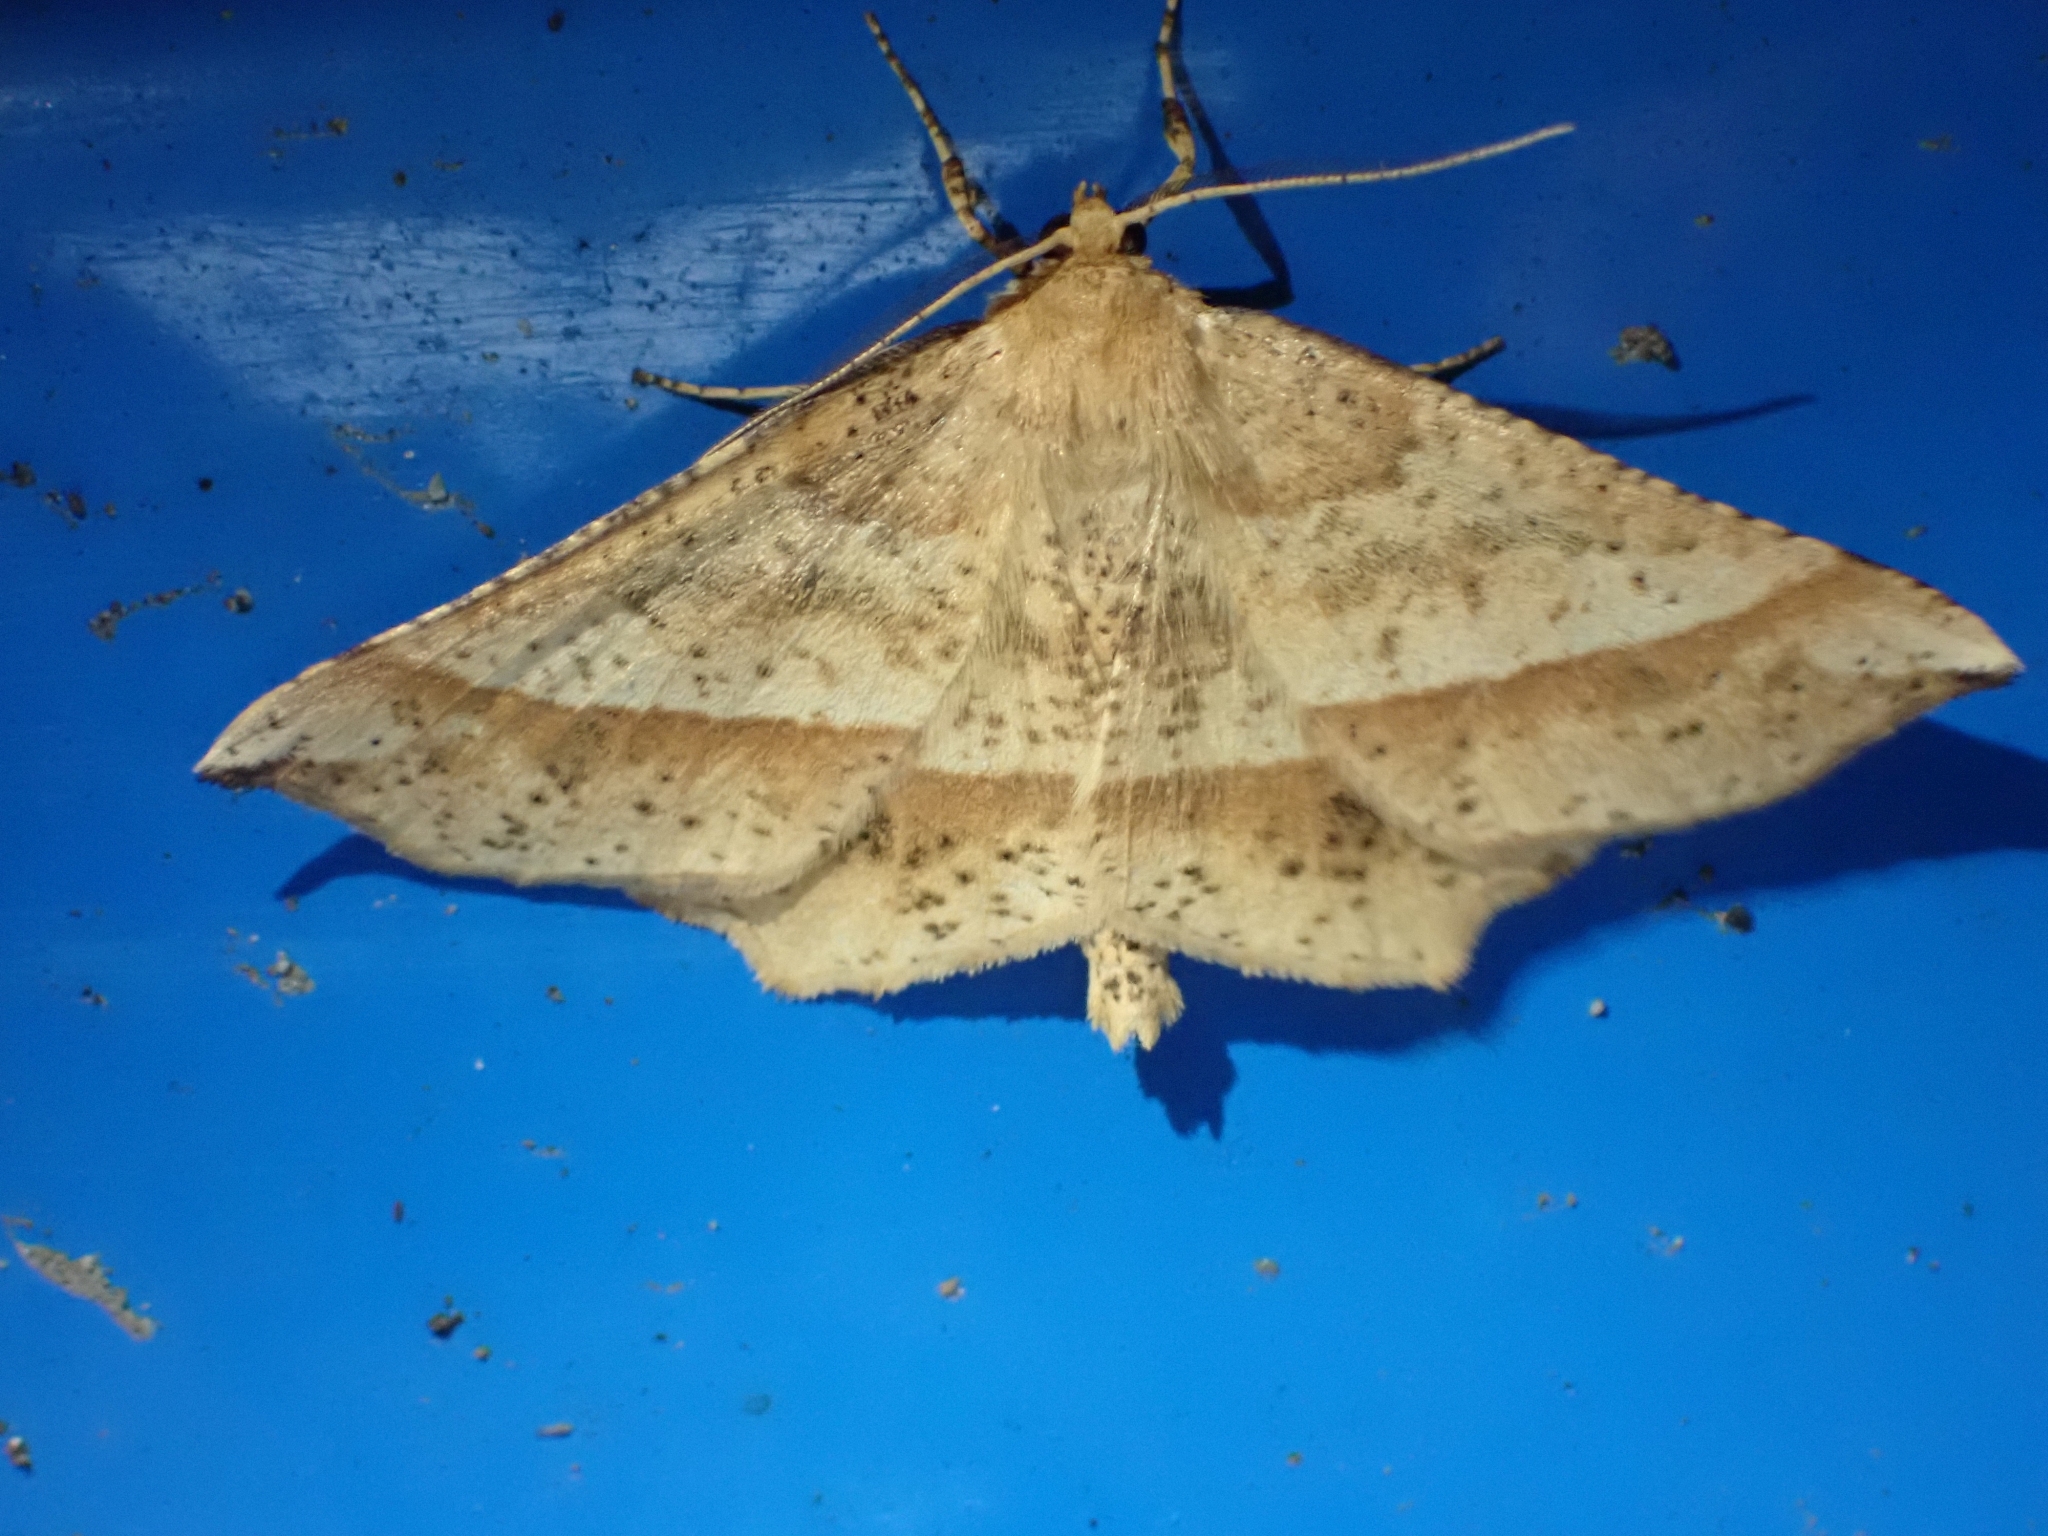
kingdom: Animalia
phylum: Arthropoda
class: Insecta
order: Lepidoptera
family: Geometridae
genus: Euchlaena
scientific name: Euchlaena tigrinaria
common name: Mottled euchlaena moth
